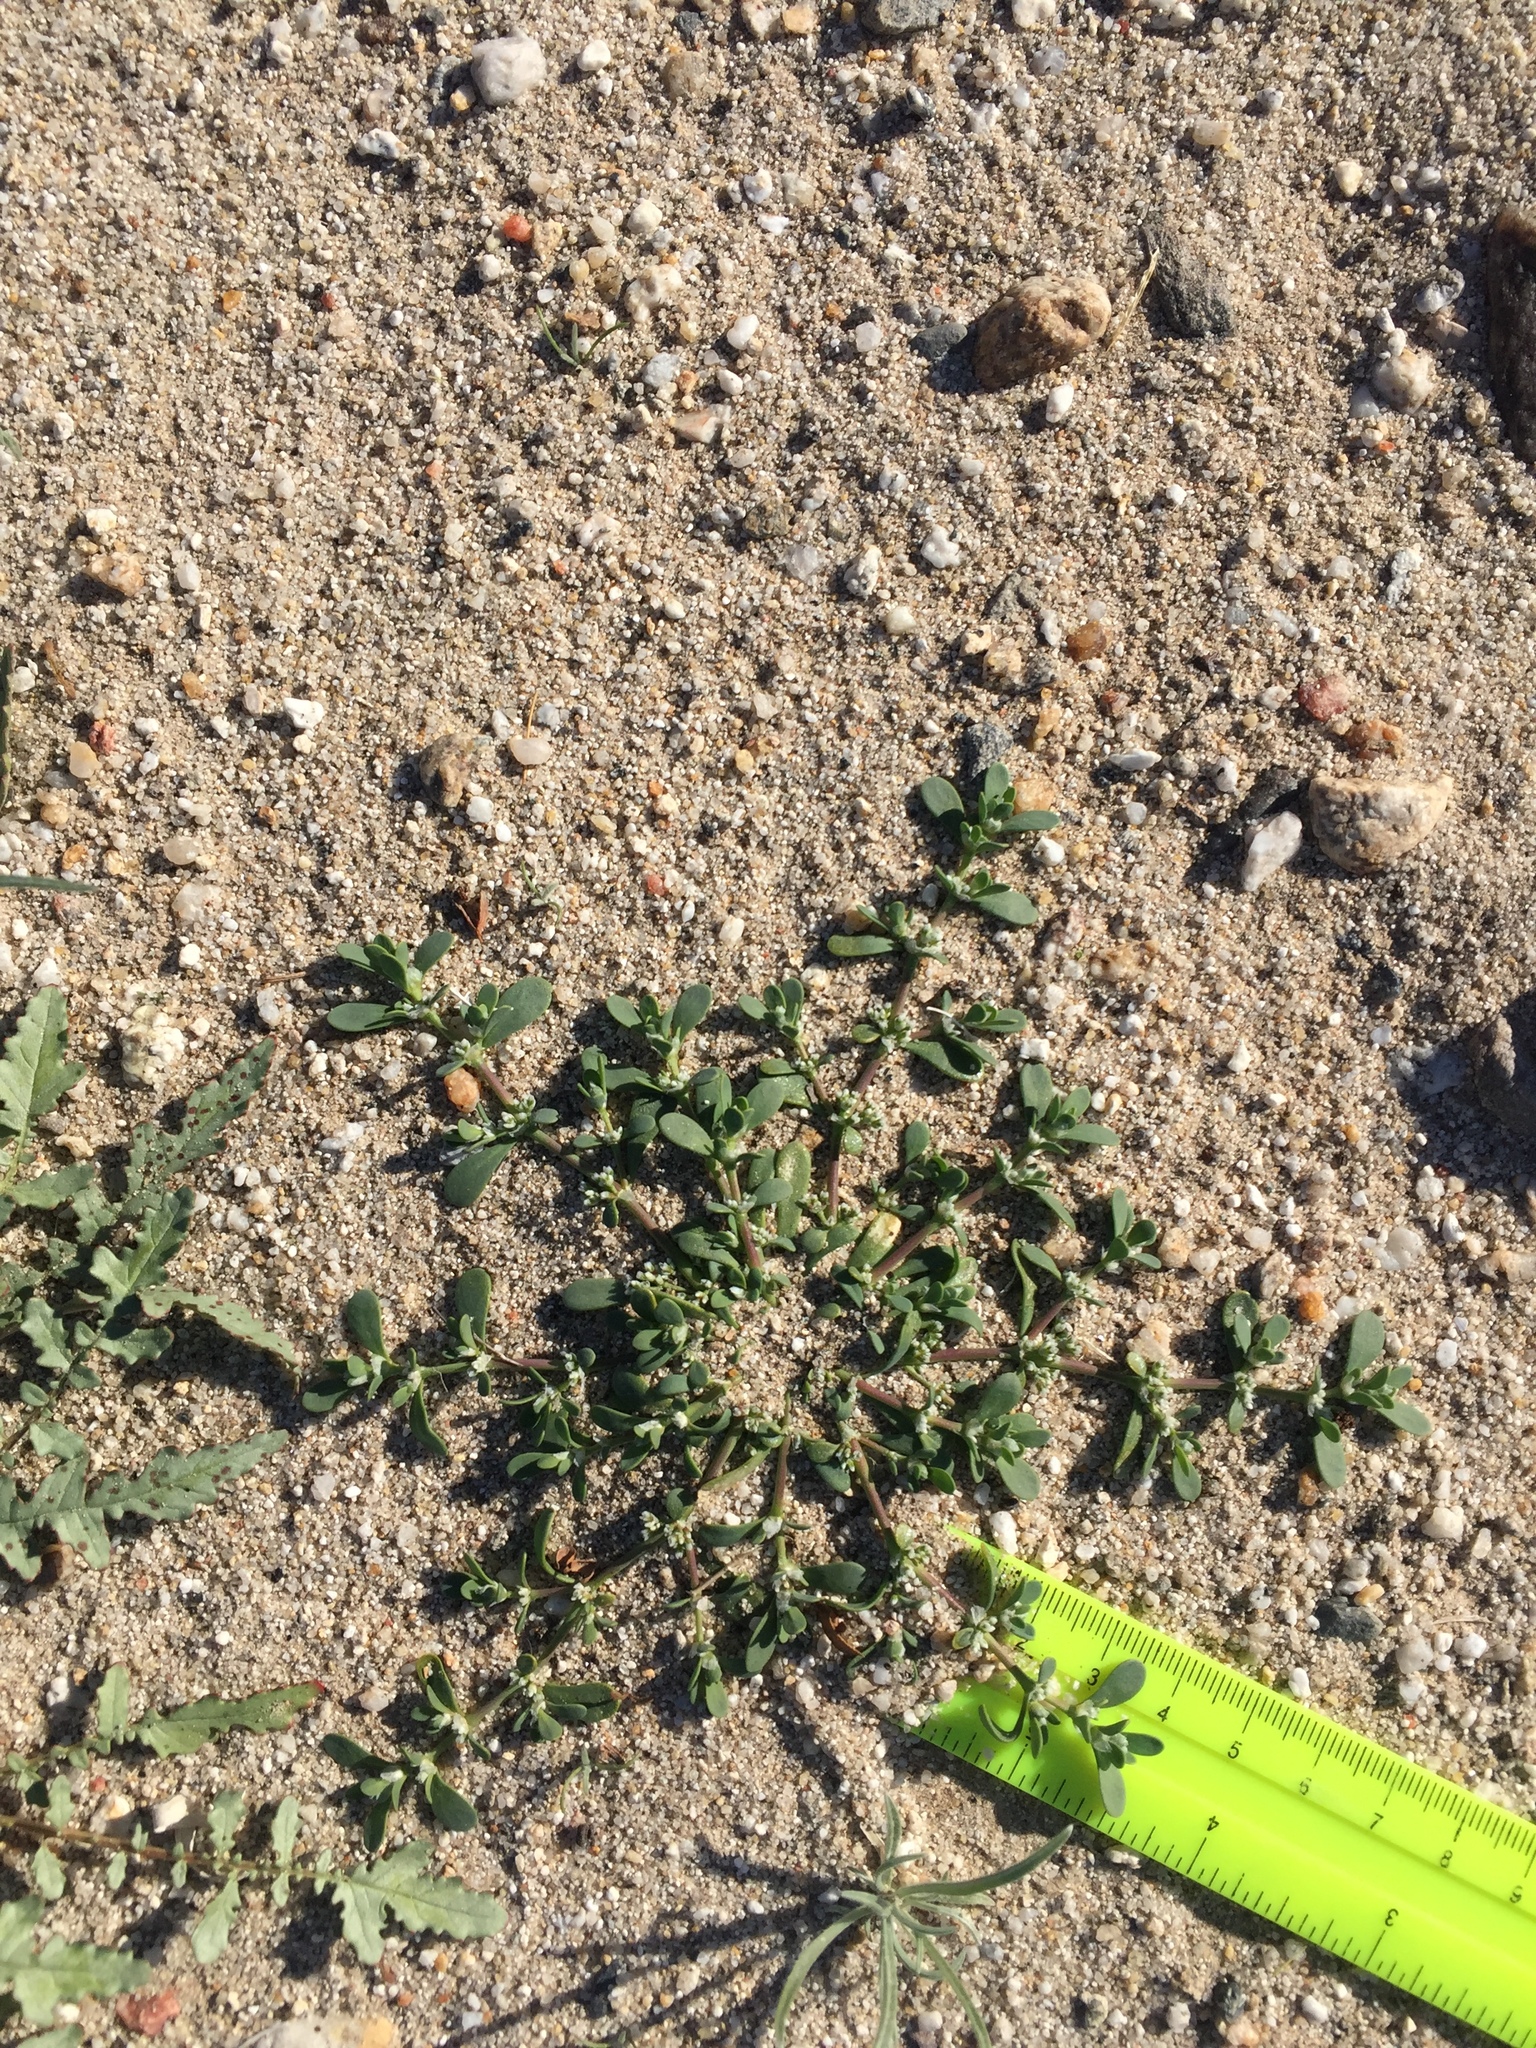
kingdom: Plantae
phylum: Tracheophyta
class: Magnoliopsida
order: Caryophyllales
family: Caryophyllaceae
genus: Achyronychia
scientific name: Achyronychia cooperi
